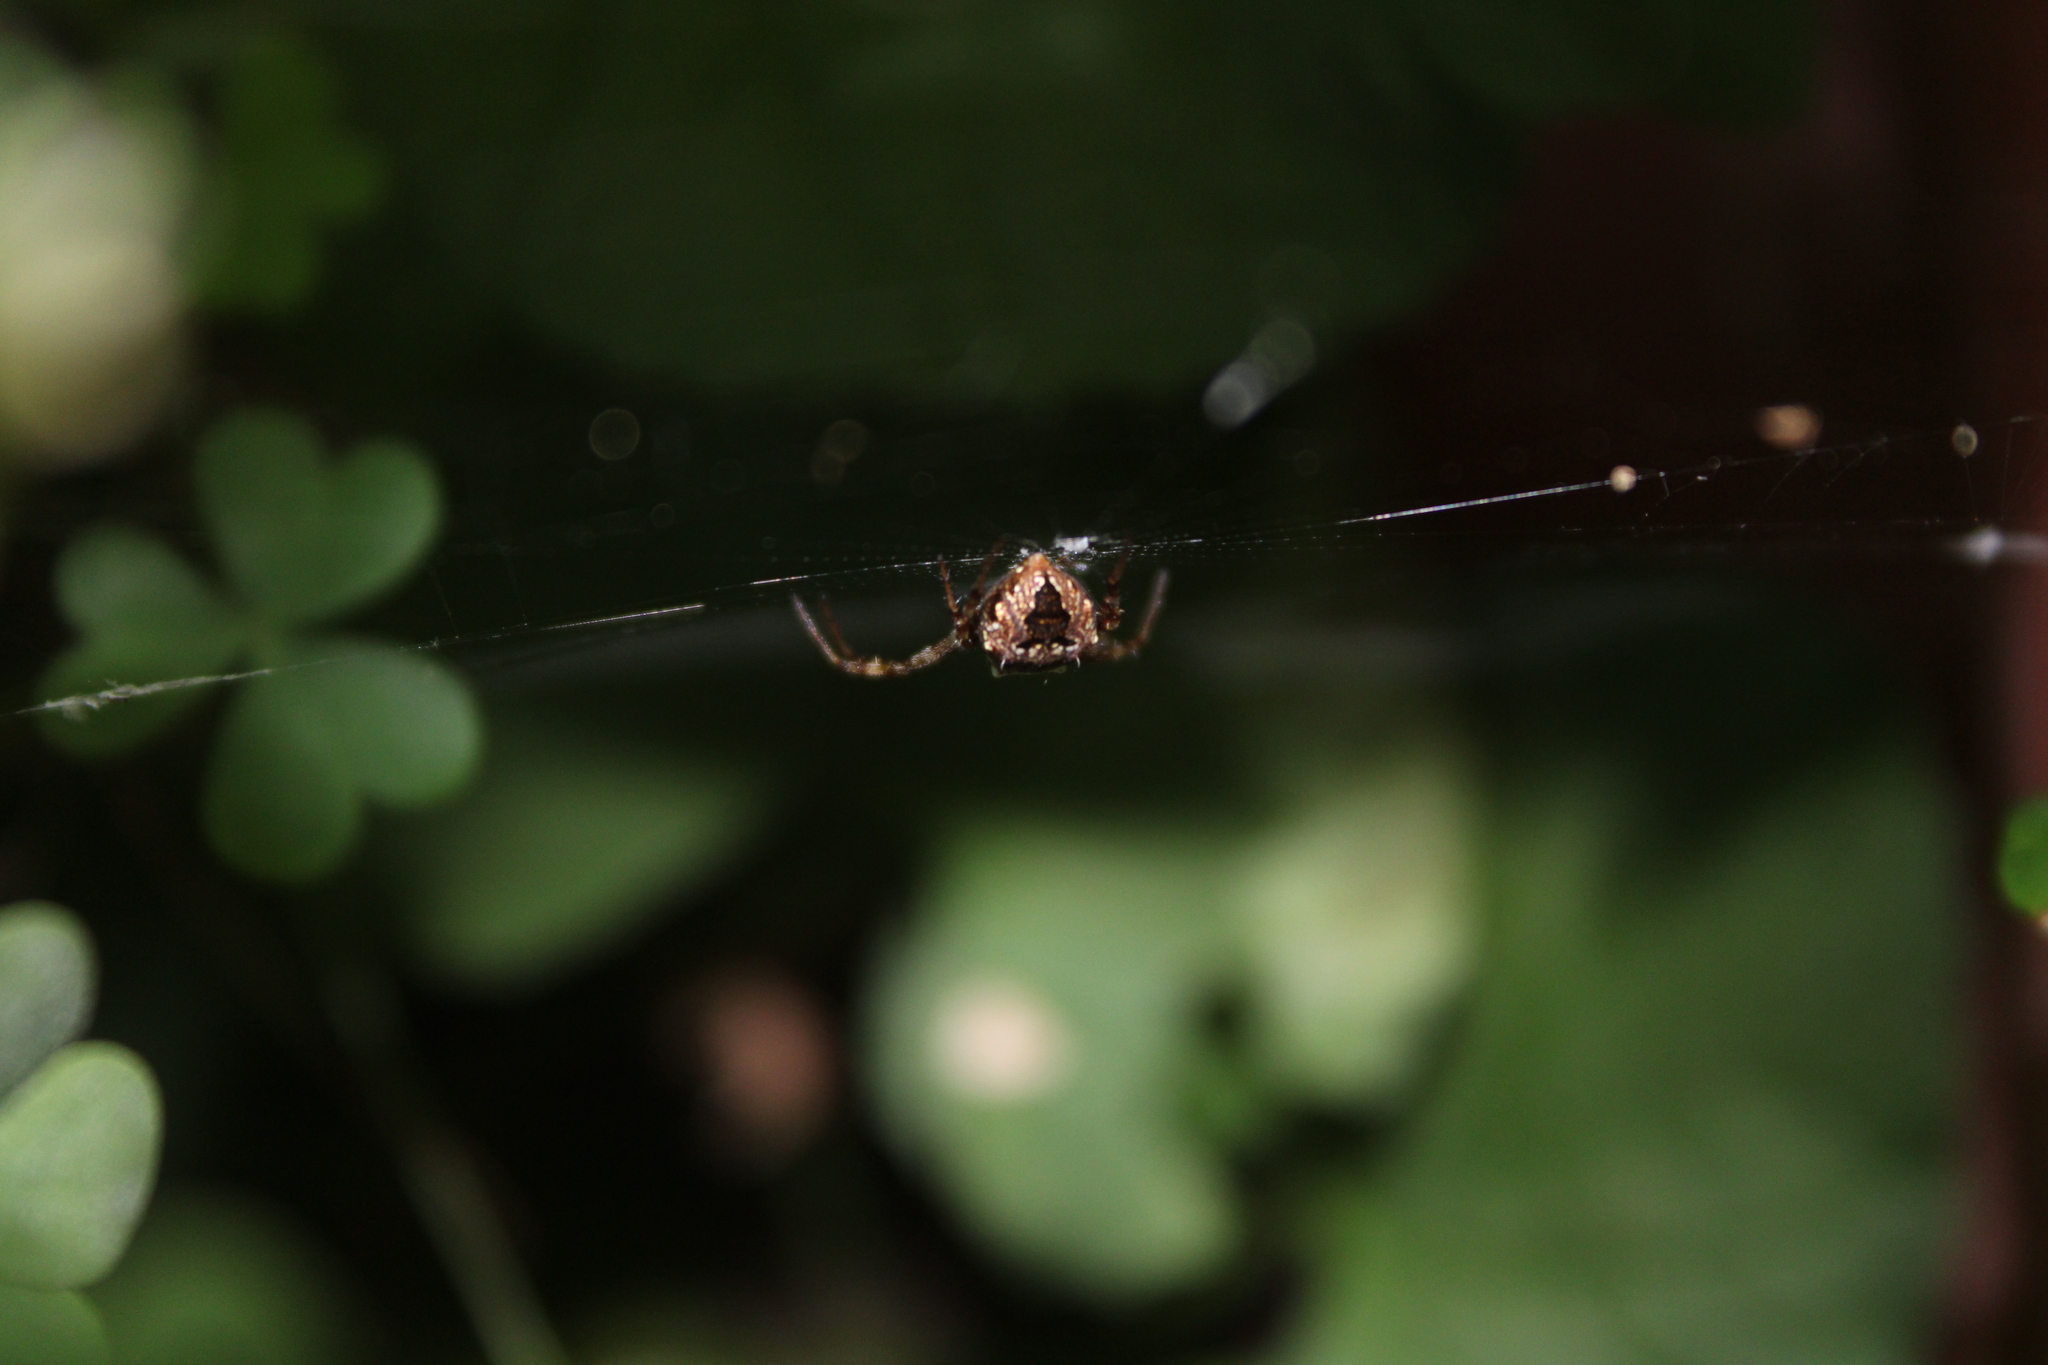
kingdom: Animalia
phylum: Arthropoda
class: Arachnida
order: Araneae
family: Araneidae
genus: Gea
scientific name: Gea heptagon
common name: Orb weavers
